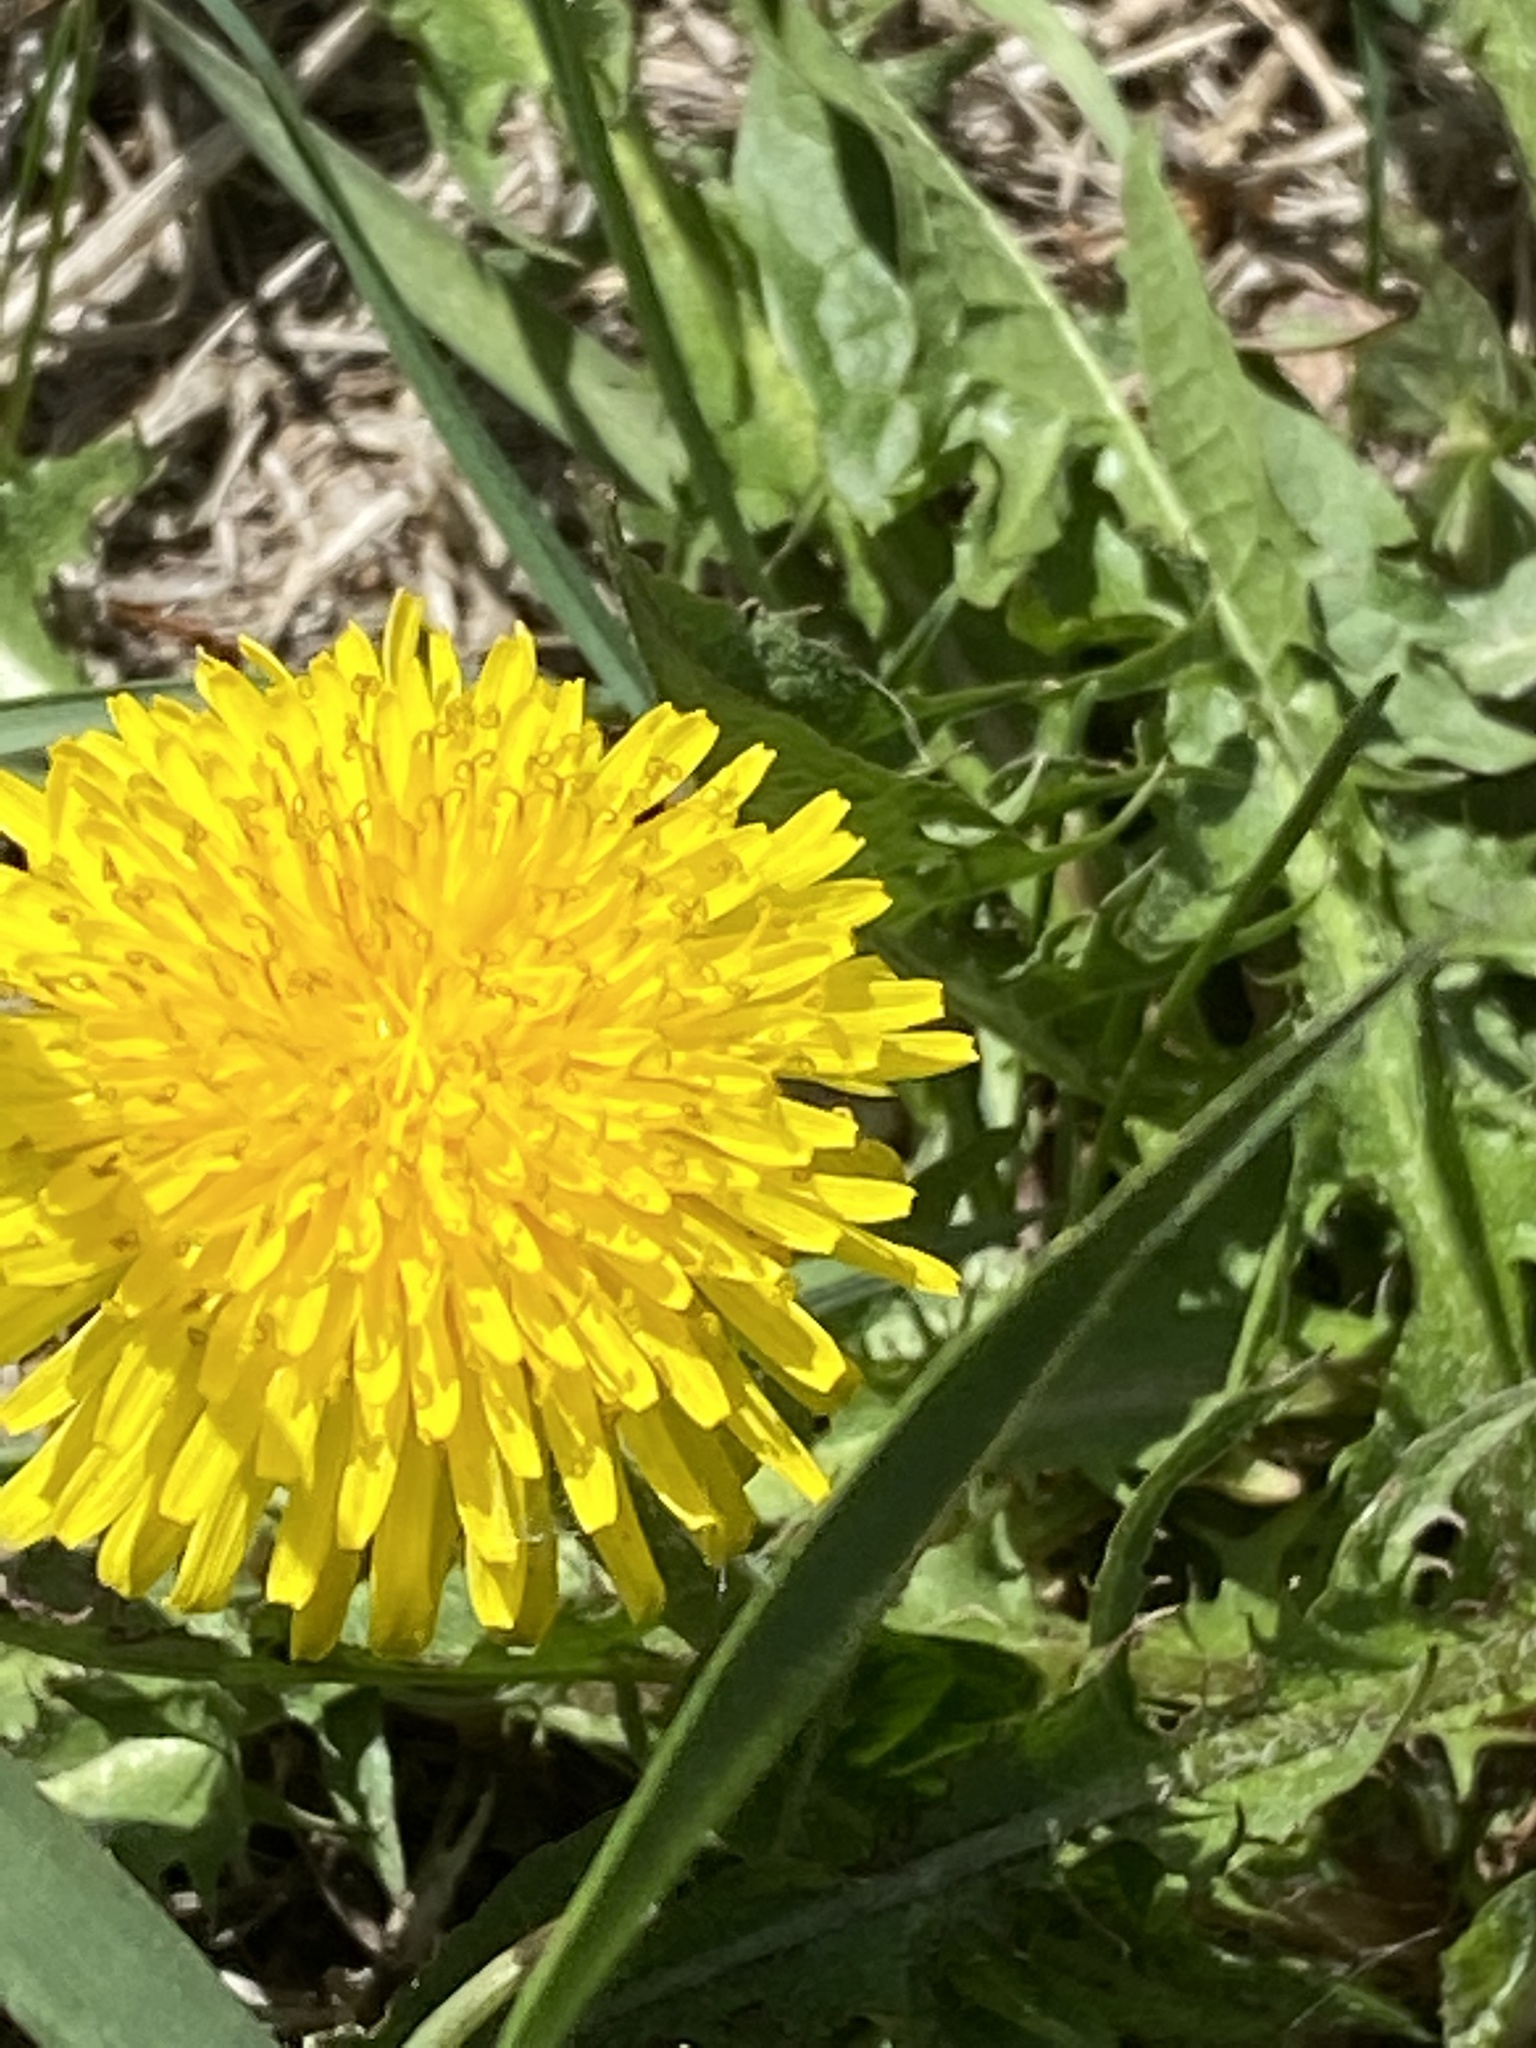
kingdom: Plantae
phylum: Tracheophyta
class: Magnoliopsida
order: Asterales
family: Asteraceae
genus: Taraxacum
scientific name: Taraxacum officinale
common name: Common dandelion
